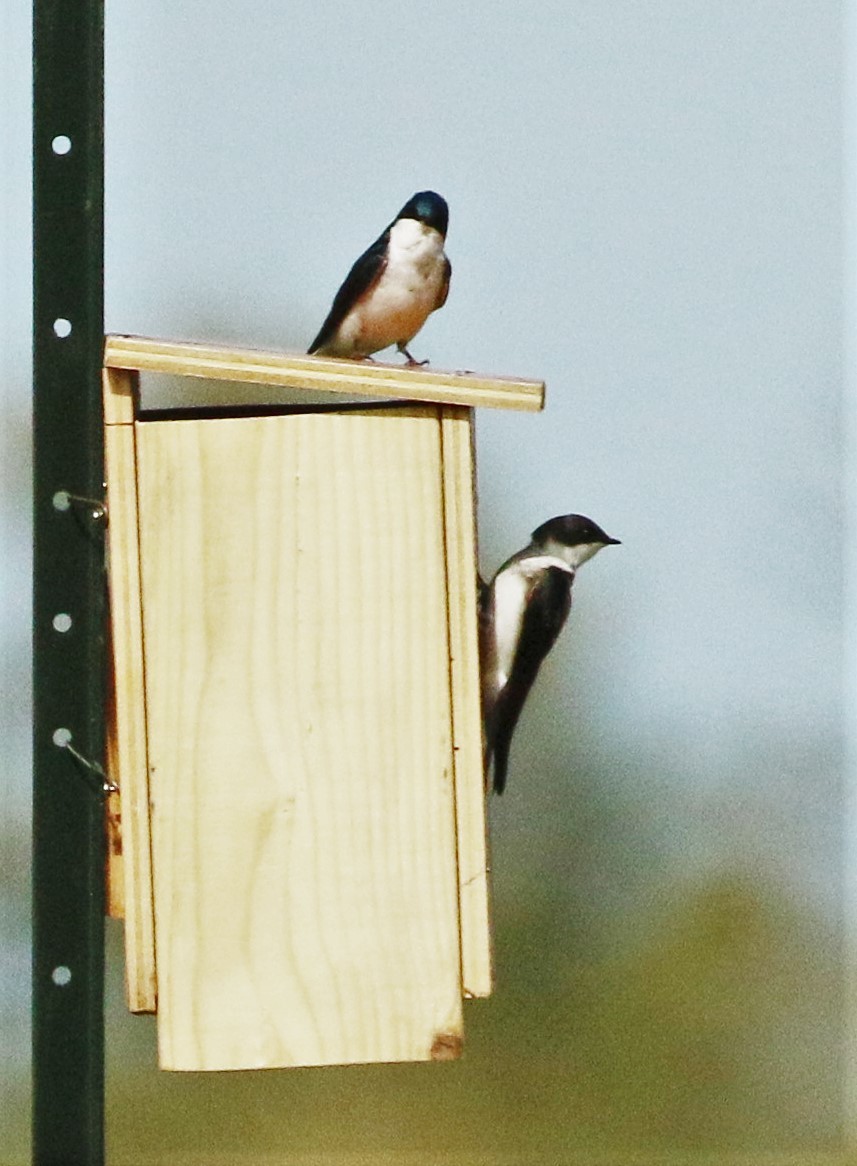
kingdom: Animalia
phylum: Chordata
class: Aves
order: Passeriformes
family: Hirundinidae
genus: Tachycineta
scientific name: Tachycineta bicolor
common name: Tree swallow
